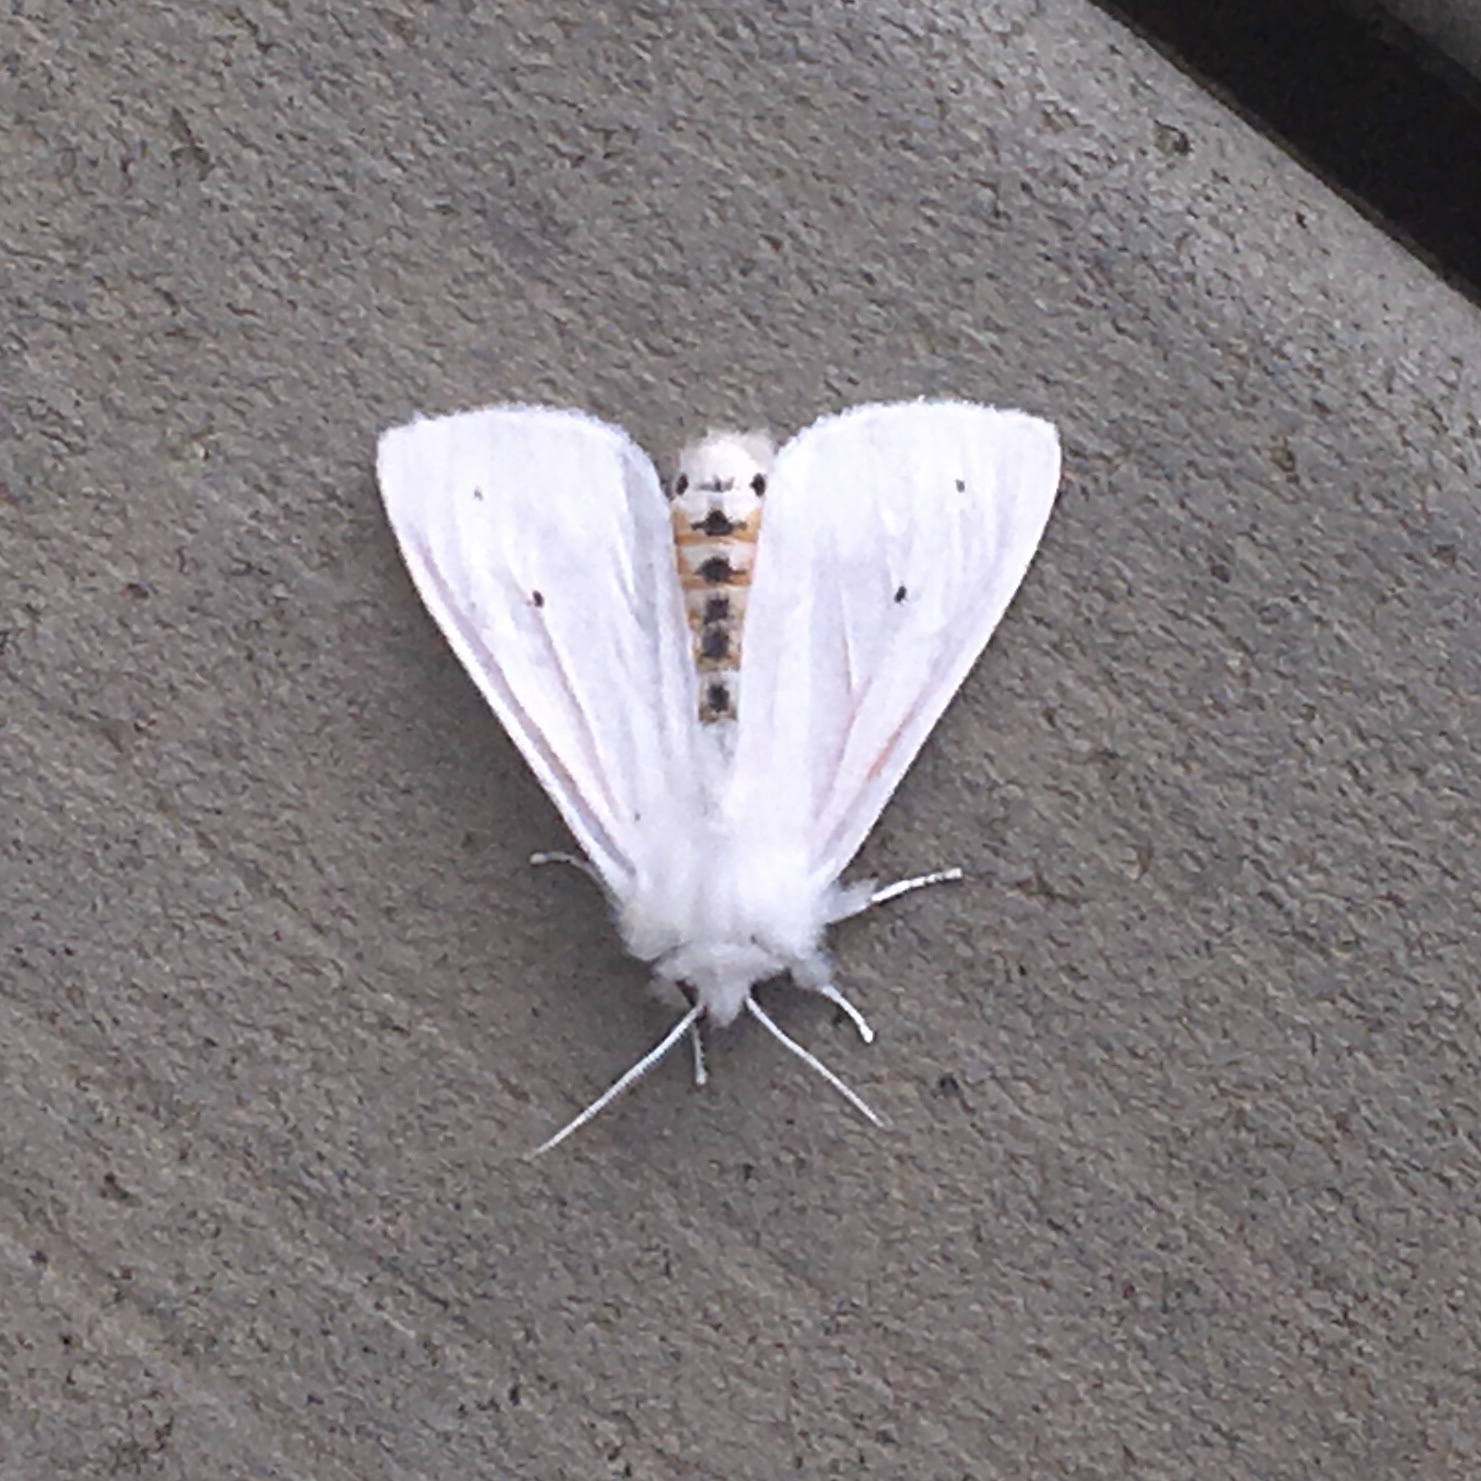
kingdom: Animalia
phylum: Arthropoda
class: Insecta
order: Lepidoptera
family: Erebidae
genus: Spilosoma
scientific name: Spilosoma virginica
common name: Virginia tiger moth
